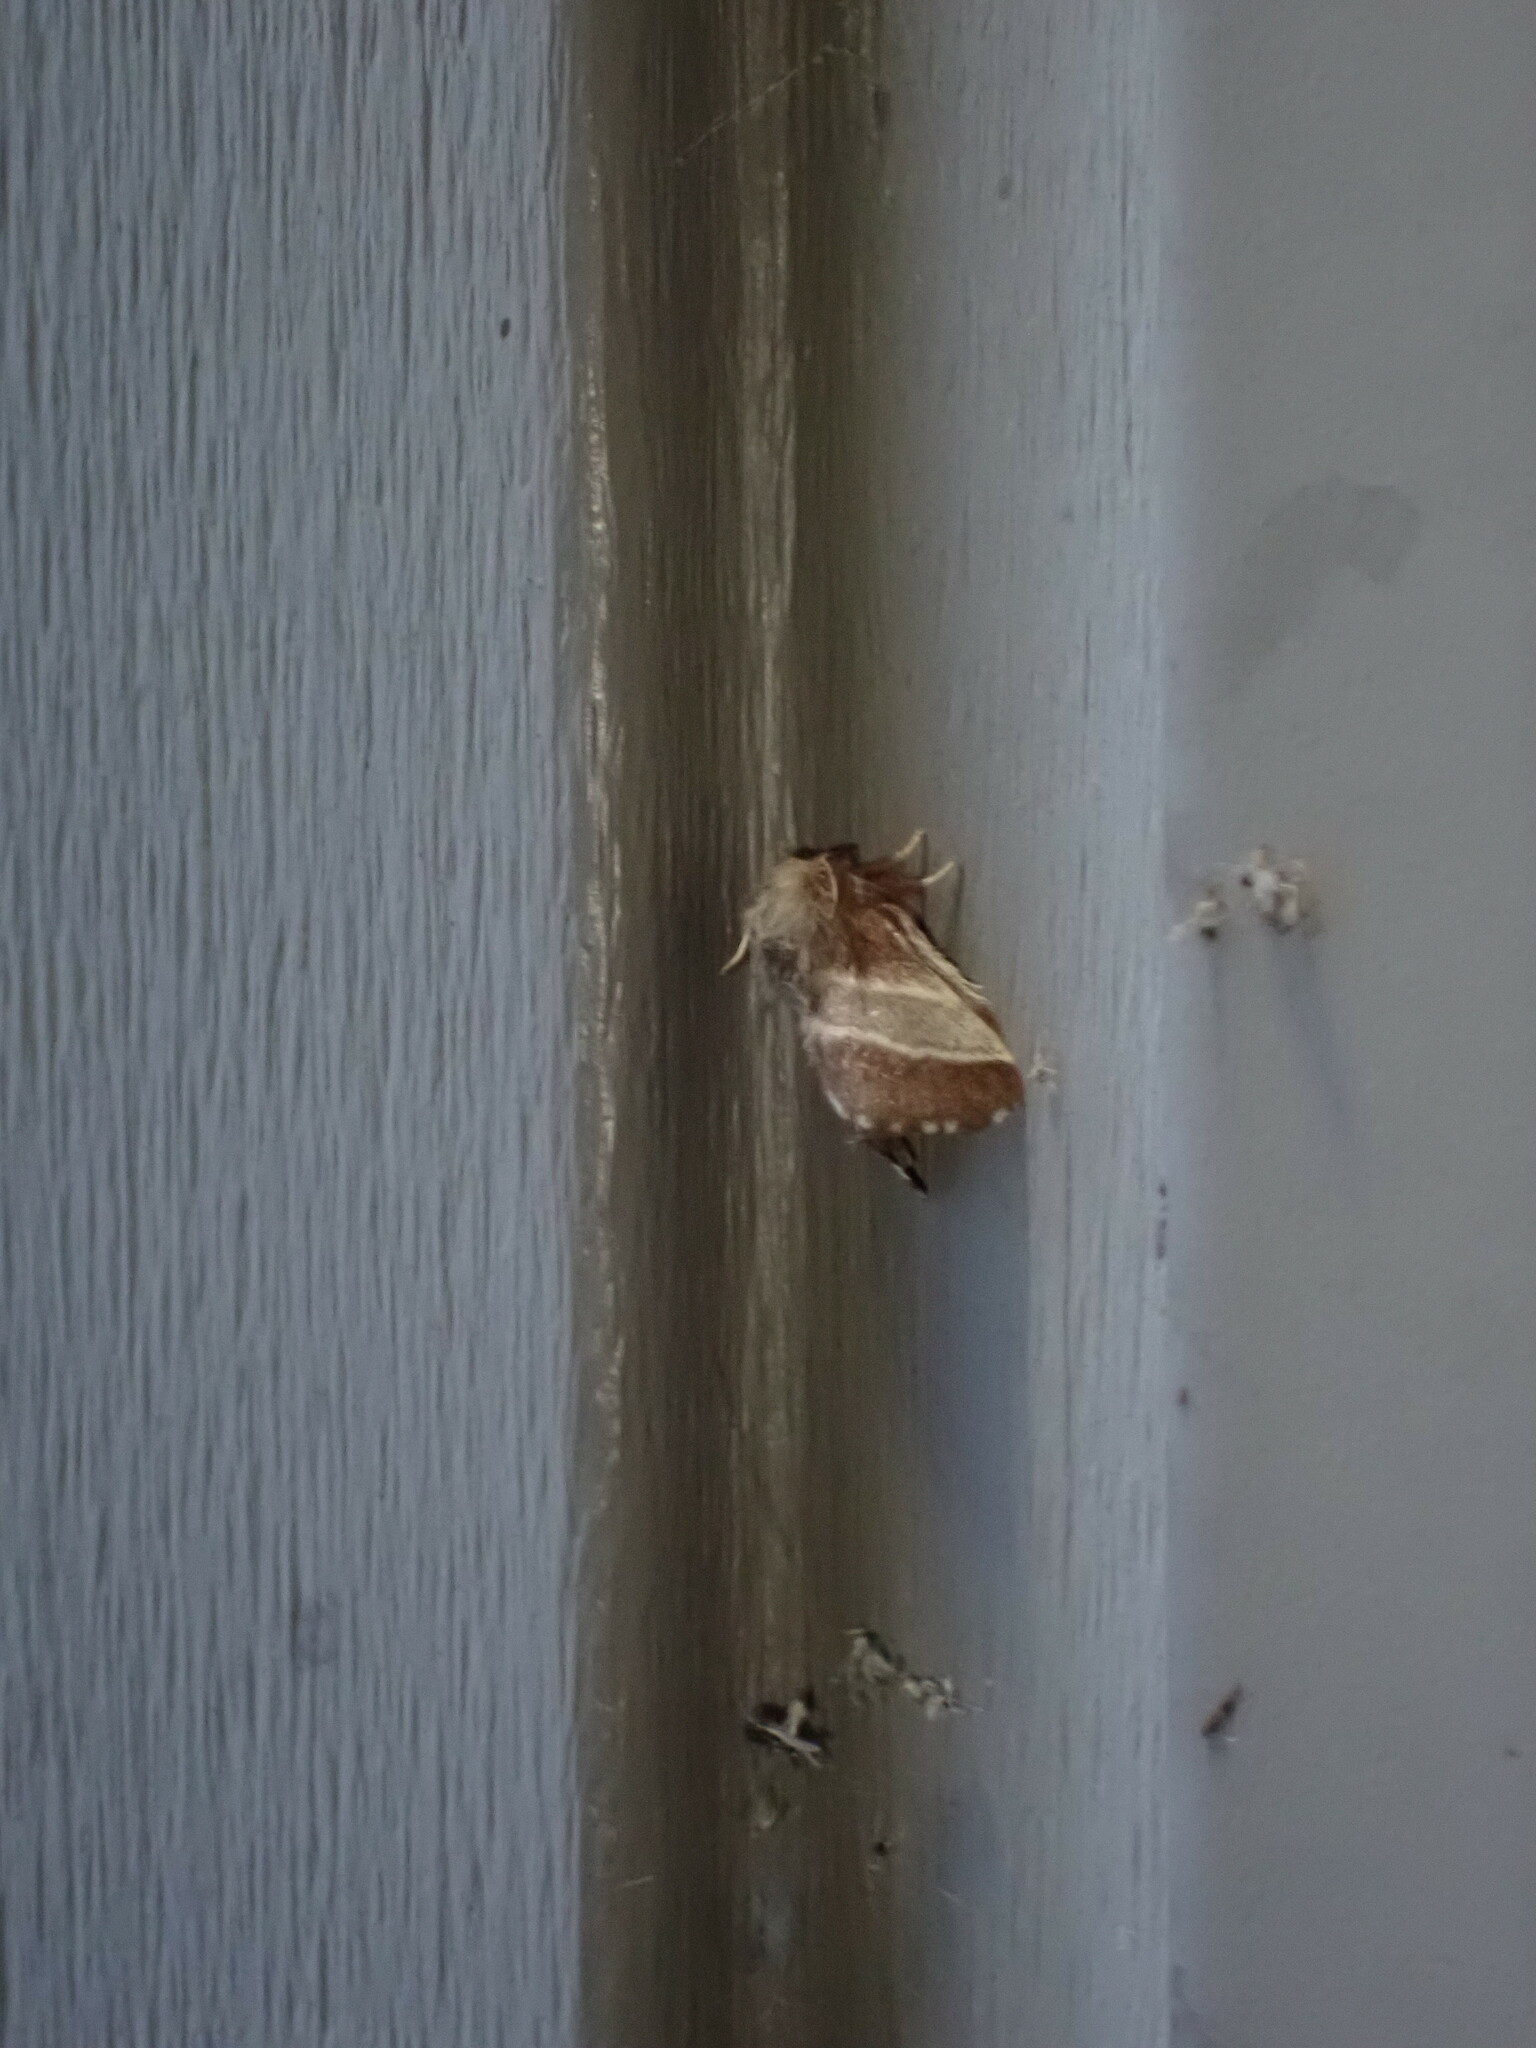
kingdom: Animalia
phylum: Arthropoda
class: Insecta
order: Lepidoptera
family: Lasiocampidae
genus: Malacosoma
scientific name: Malacosoma americana
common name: Eastern tent caterpillar moth
